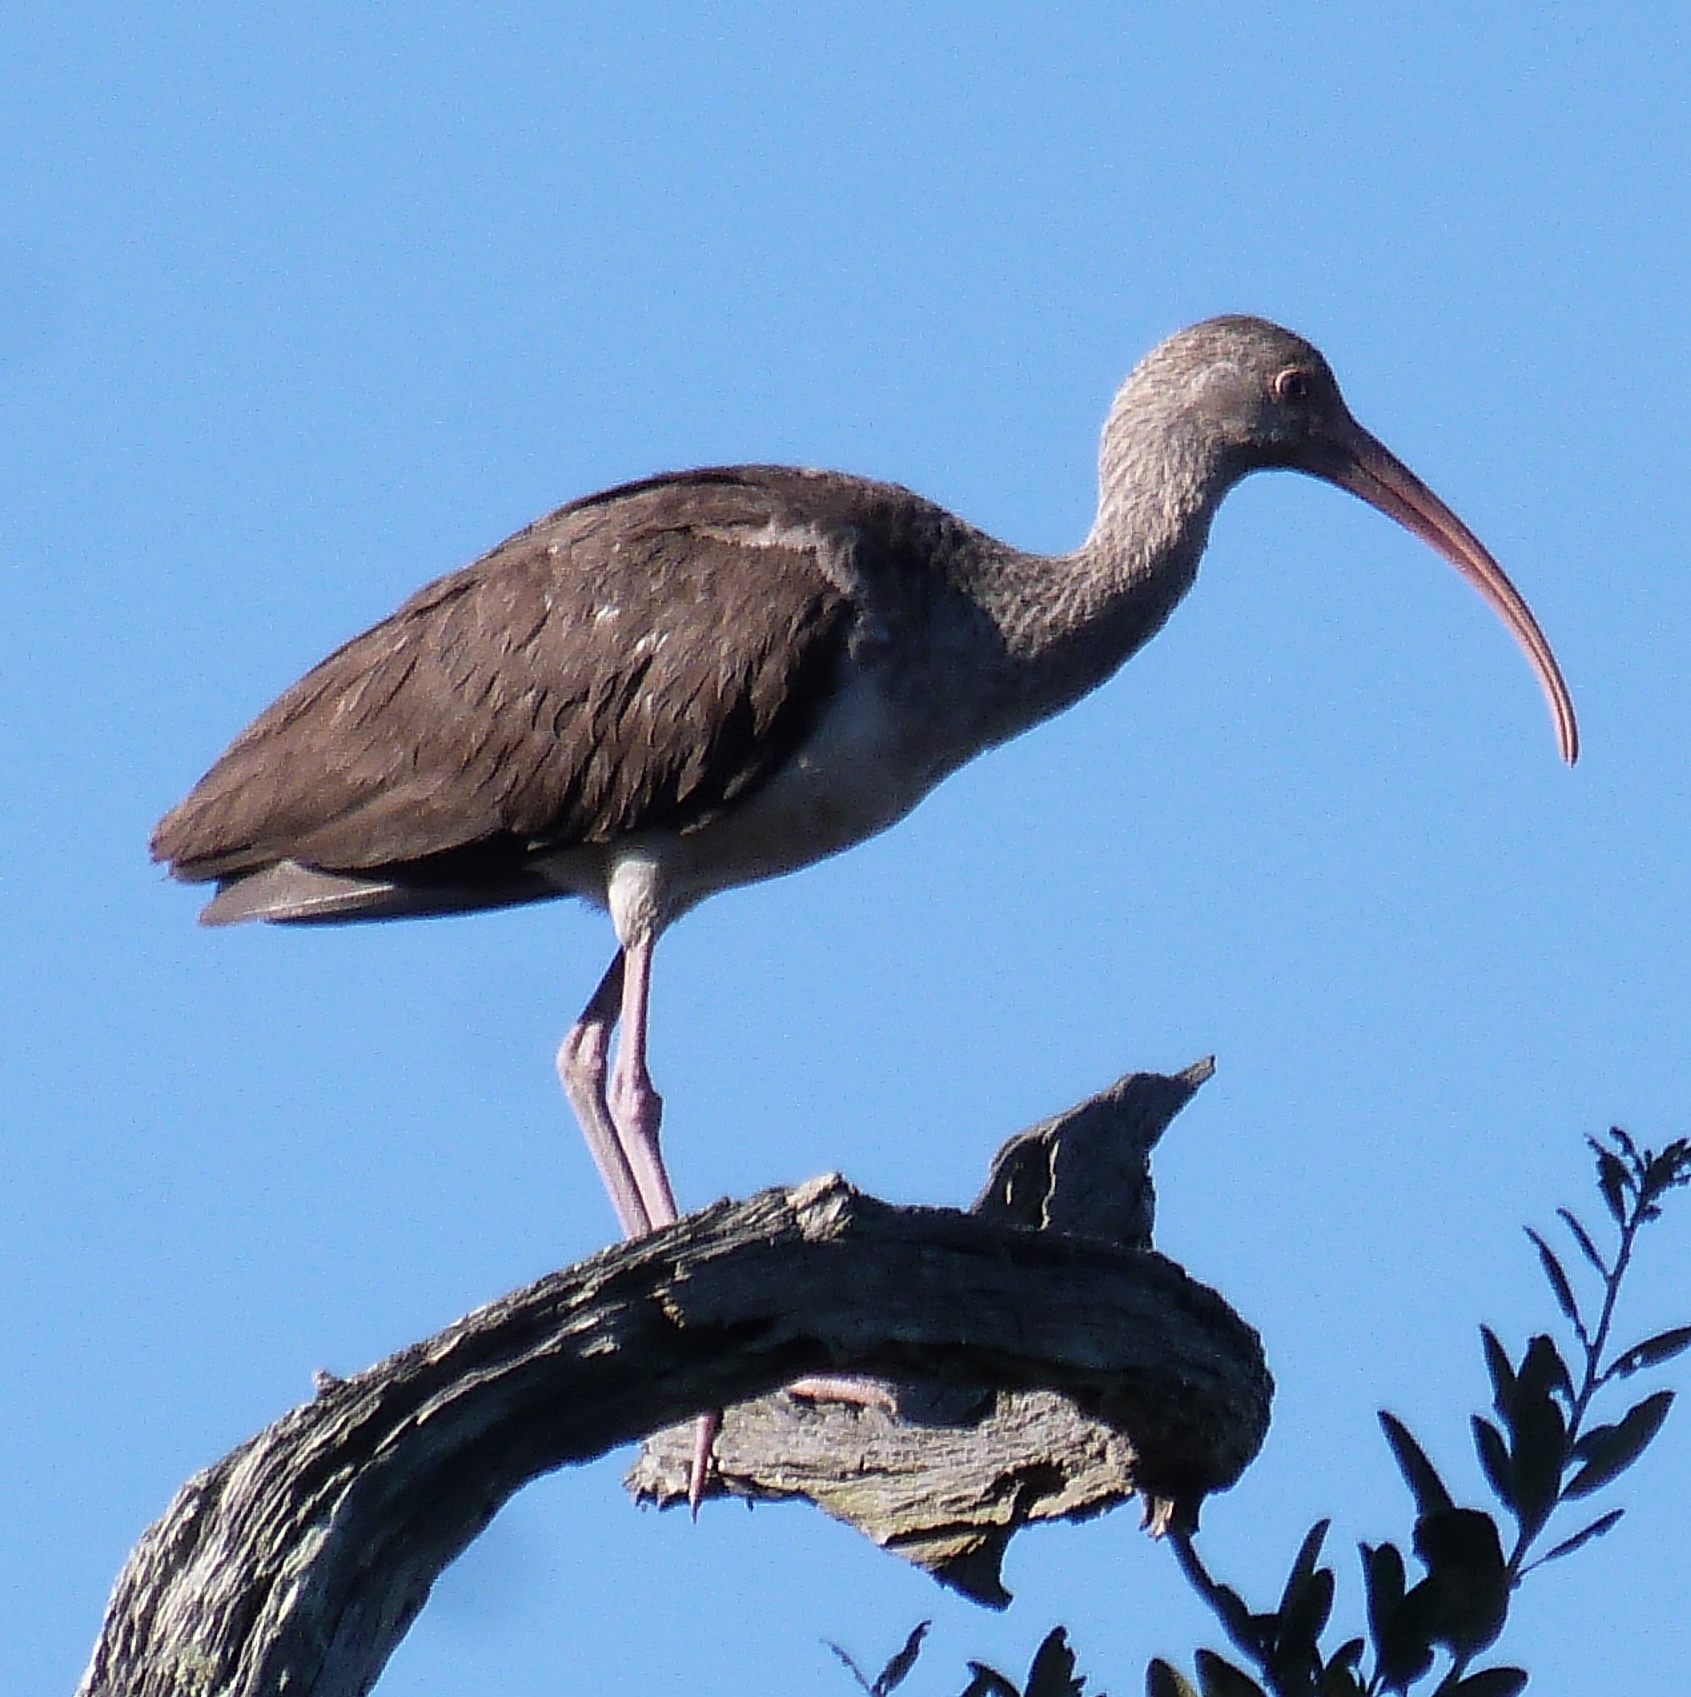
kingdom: Animalia
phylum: Chordata
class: Aves
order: Pelecaniformes
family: Threskiornithidae
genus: Eudocimus
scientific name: Eudocimus albus
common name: White ibis
